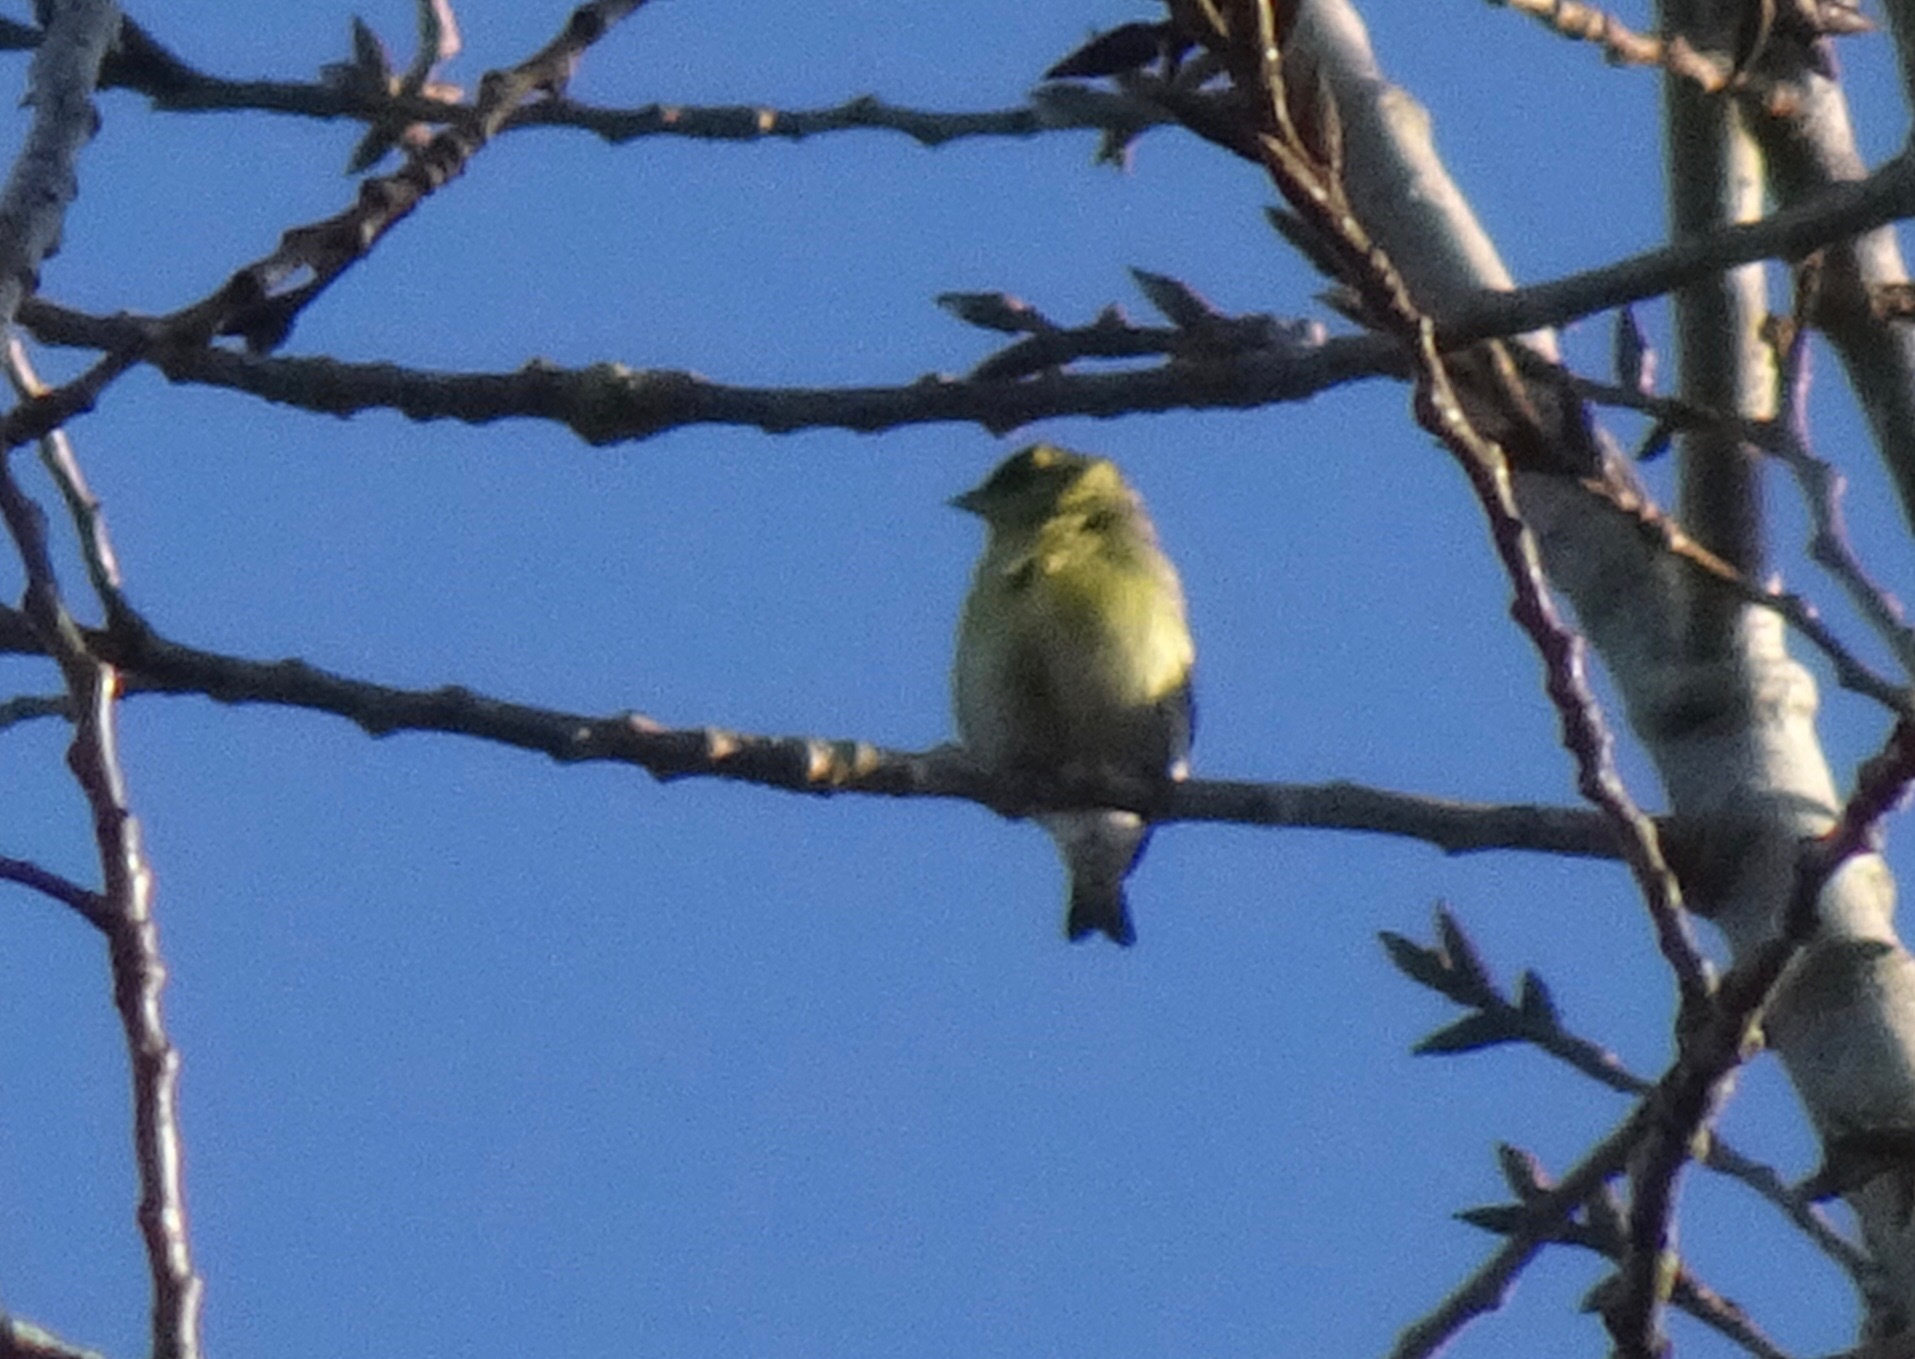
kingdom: Animalia
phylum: Chordata
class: Aves
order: Passeriformes
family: Fringillidae
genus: Spinus
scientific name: Spinus spinus
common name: Eurasian siskin
